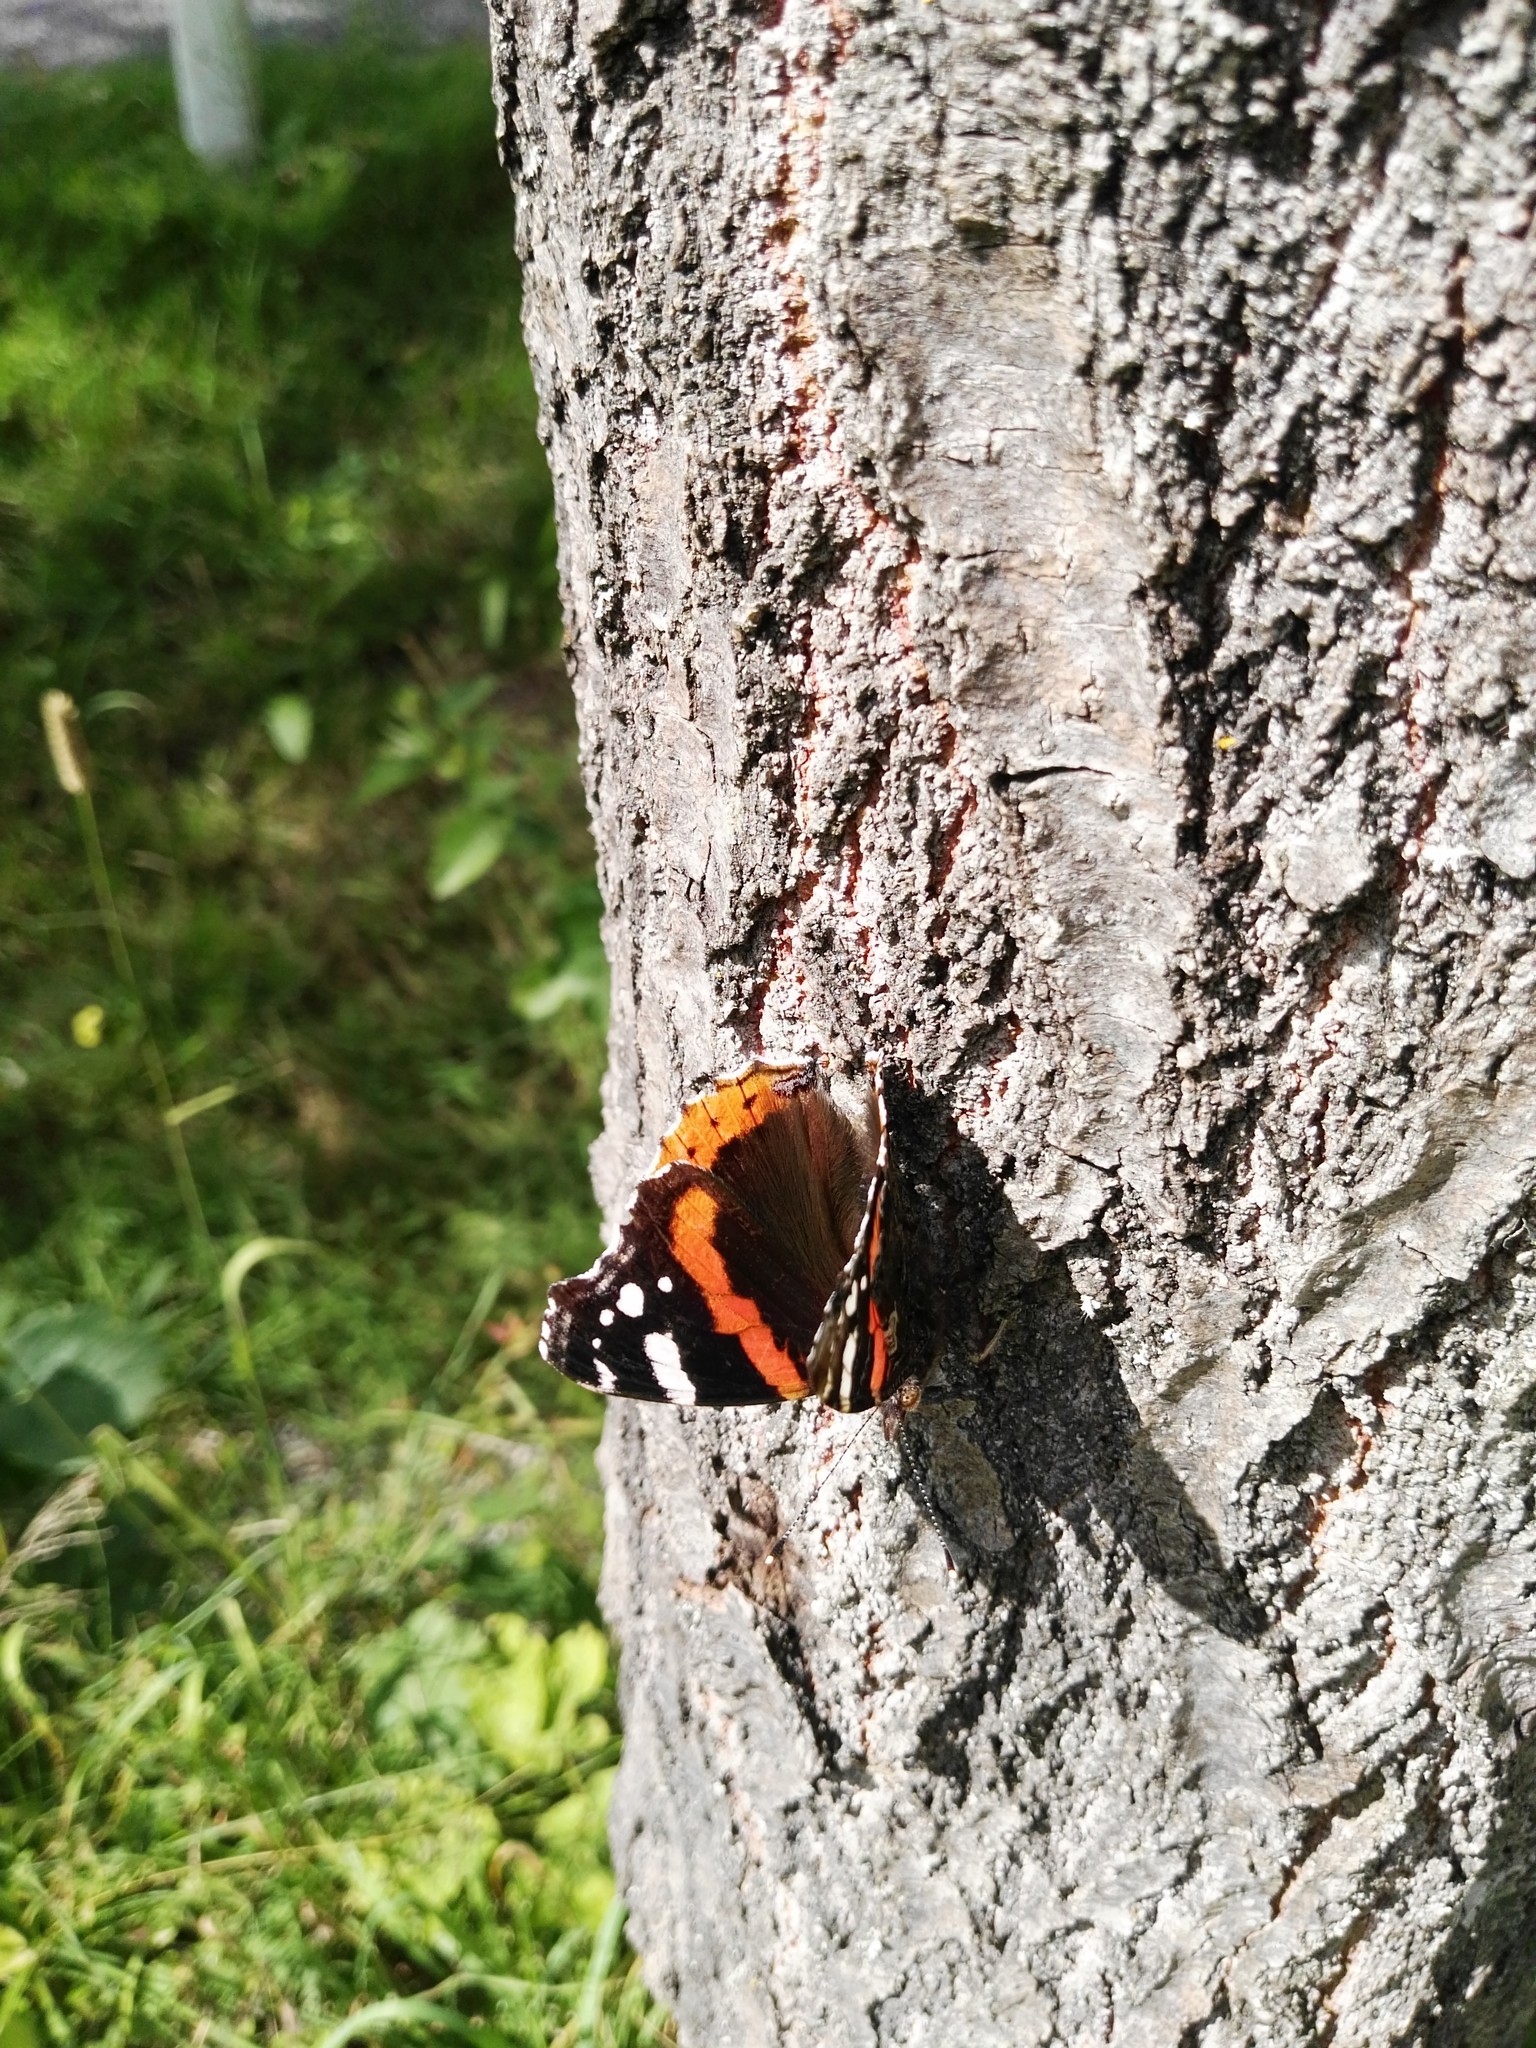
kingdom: Animalia
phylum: Arthropoda
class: Insecta
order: Lepidoptera
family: Nymphalidae
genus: Vanessa
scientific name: Vanessa atalanta
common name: Red admiral
